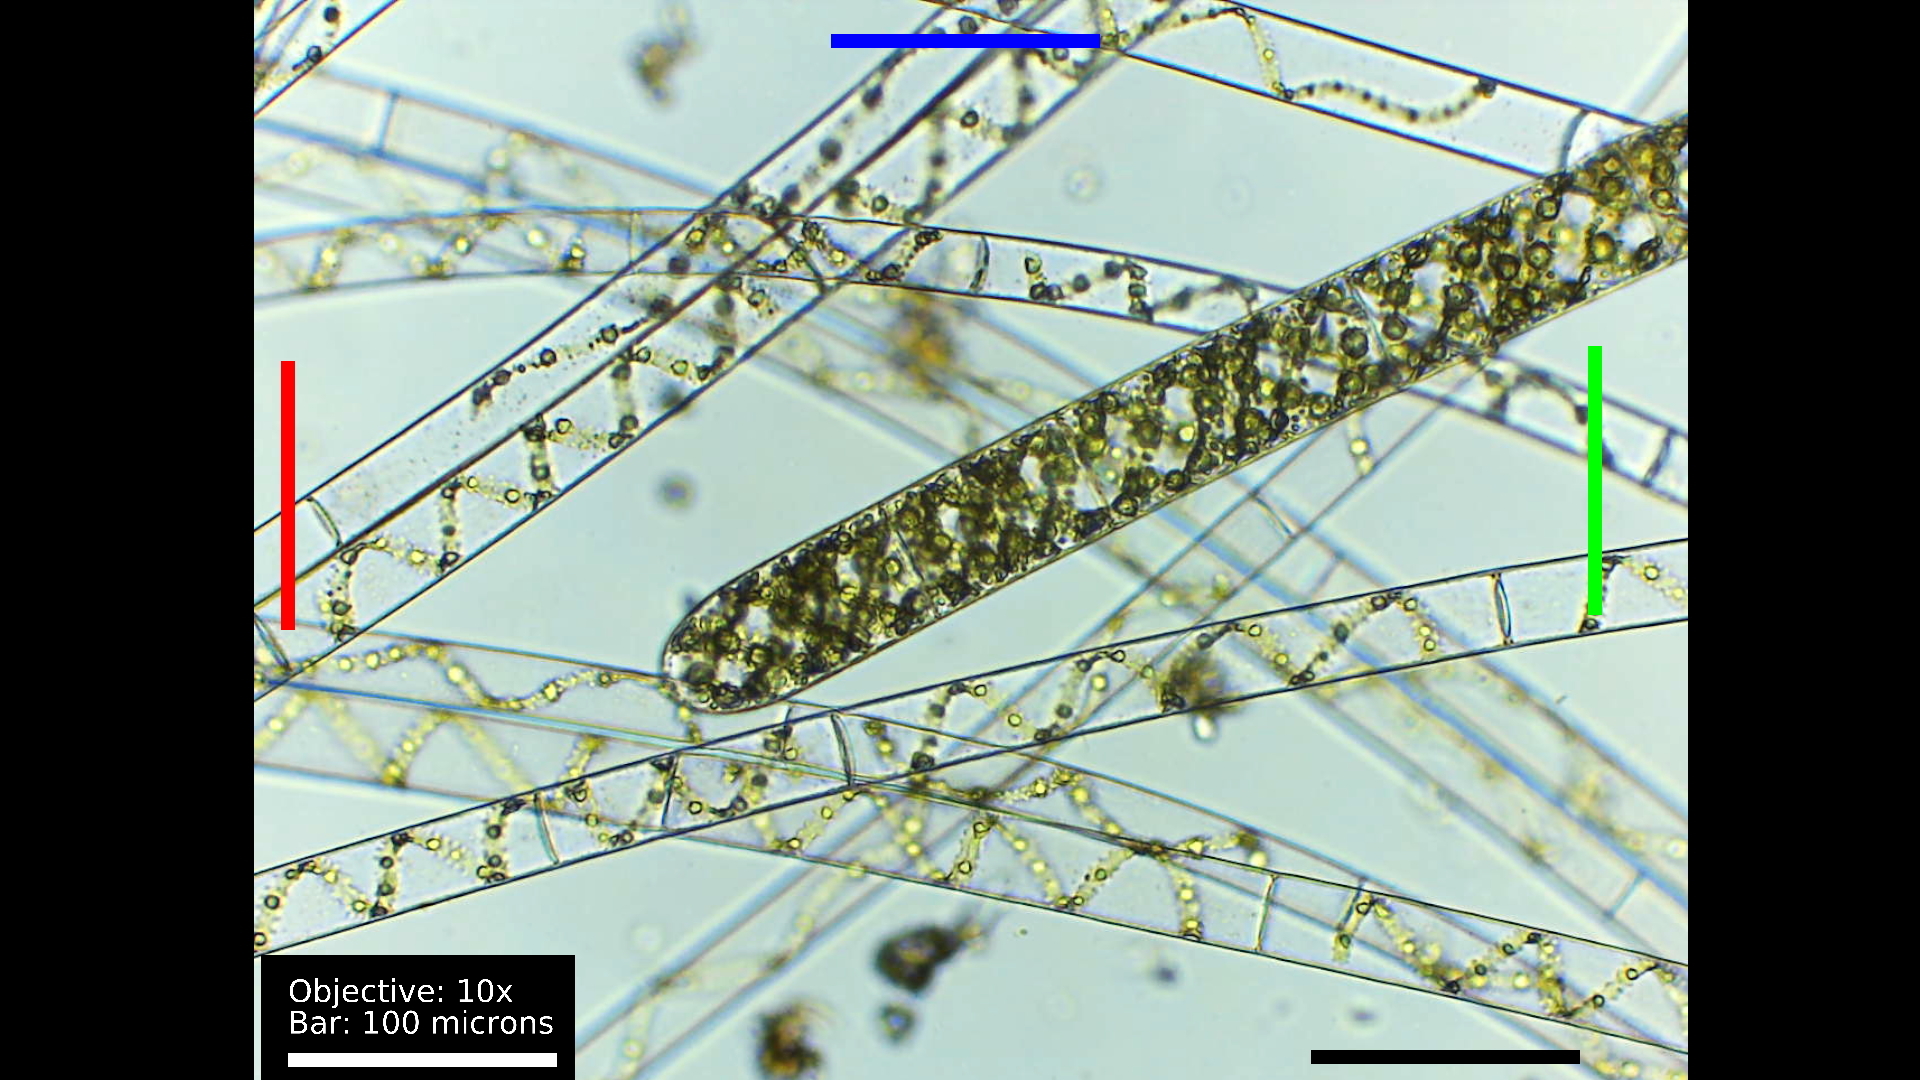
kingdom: Plantae
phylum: Charophyta
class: Zygnematophyceae
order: Zygnematales
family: Zygnemataceae
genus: Spirogyra
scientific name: Spirogyra
